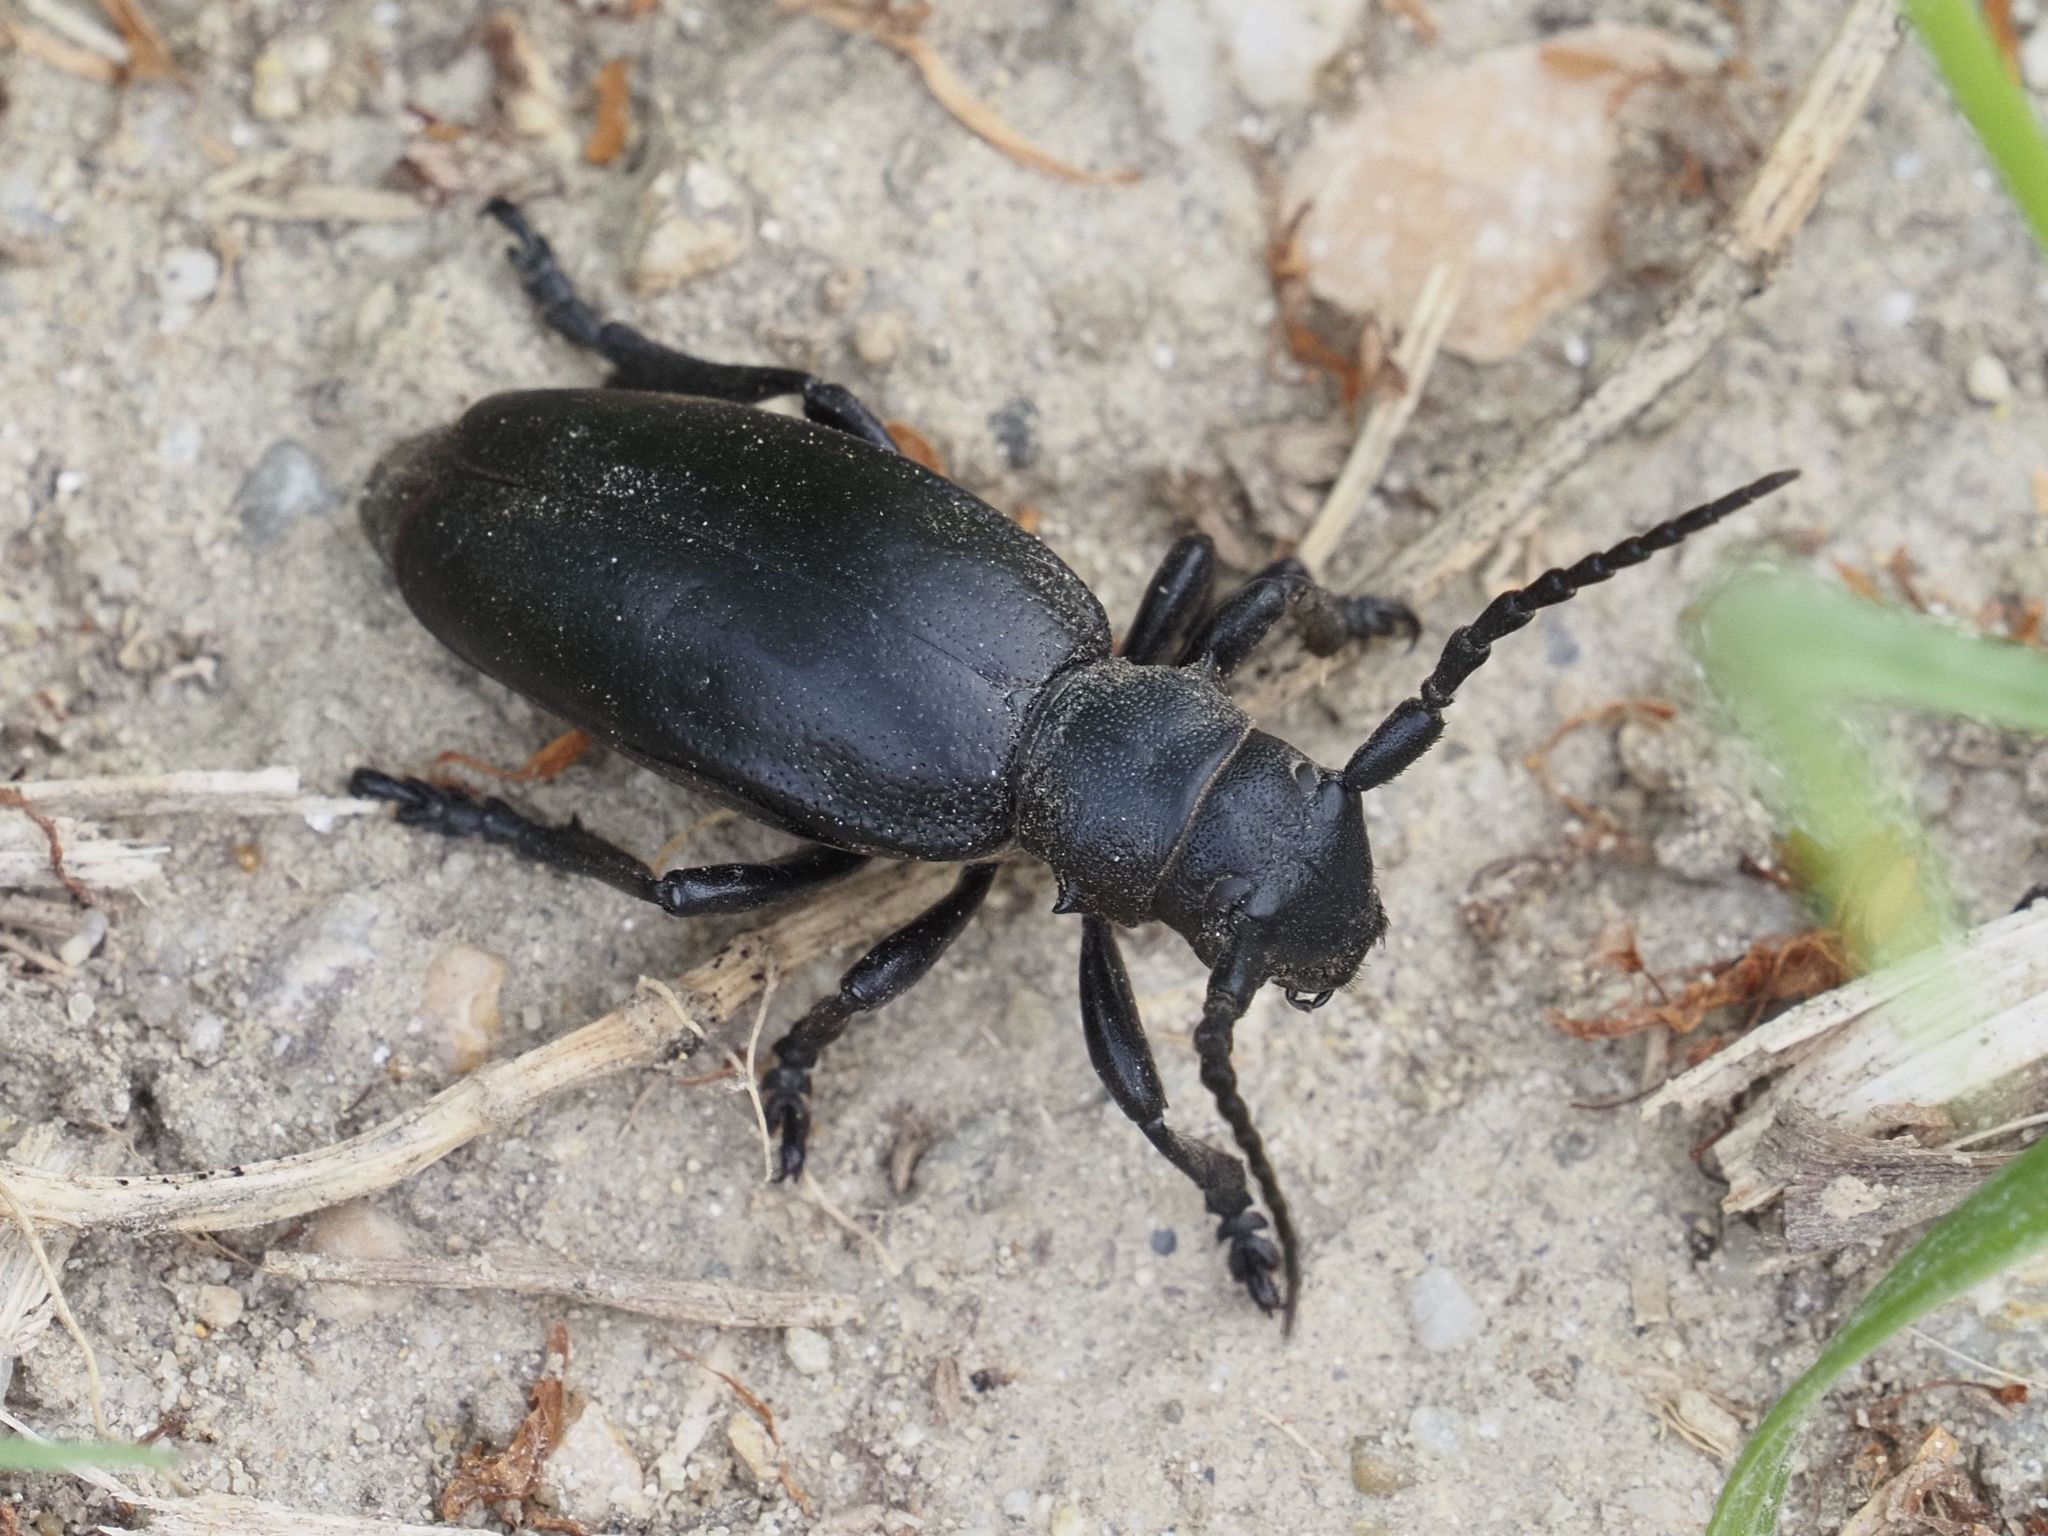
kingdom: Animalia
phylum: Arthropoda
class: Insecta
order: Coleoptera
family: Cerambycidae
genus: Dorcadion
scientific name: Dorcadion aethiops
